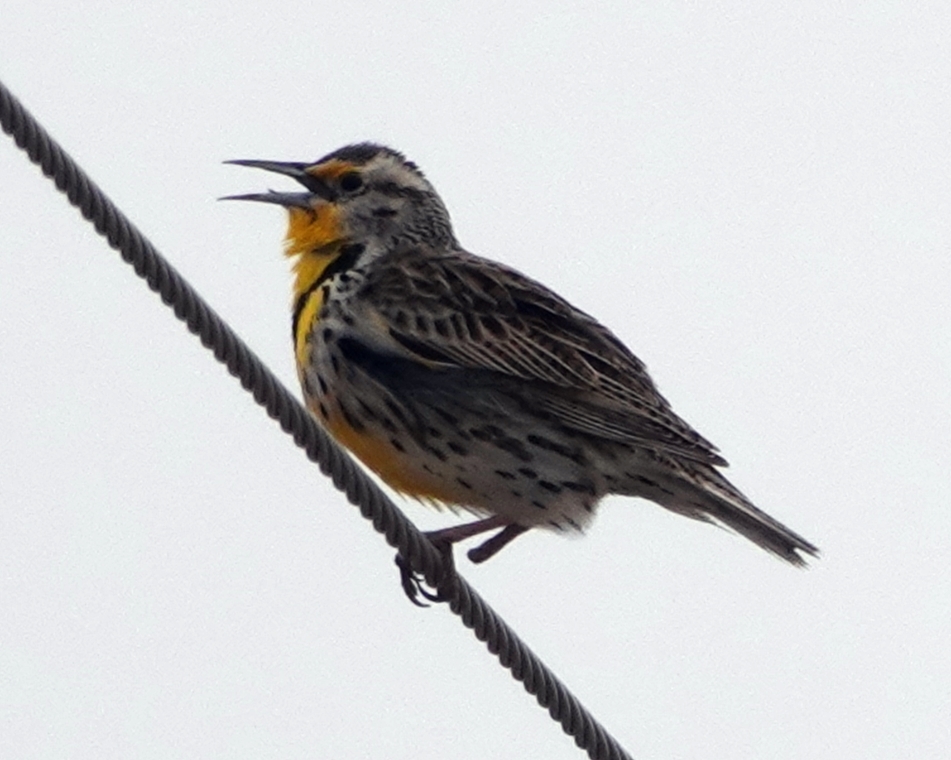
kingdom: Animalia
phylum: Chordata
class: Aves
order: Passeriformes
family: Icteridae
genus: Sturnella
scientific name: Sturnella neglecta
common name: Western meadowlark
